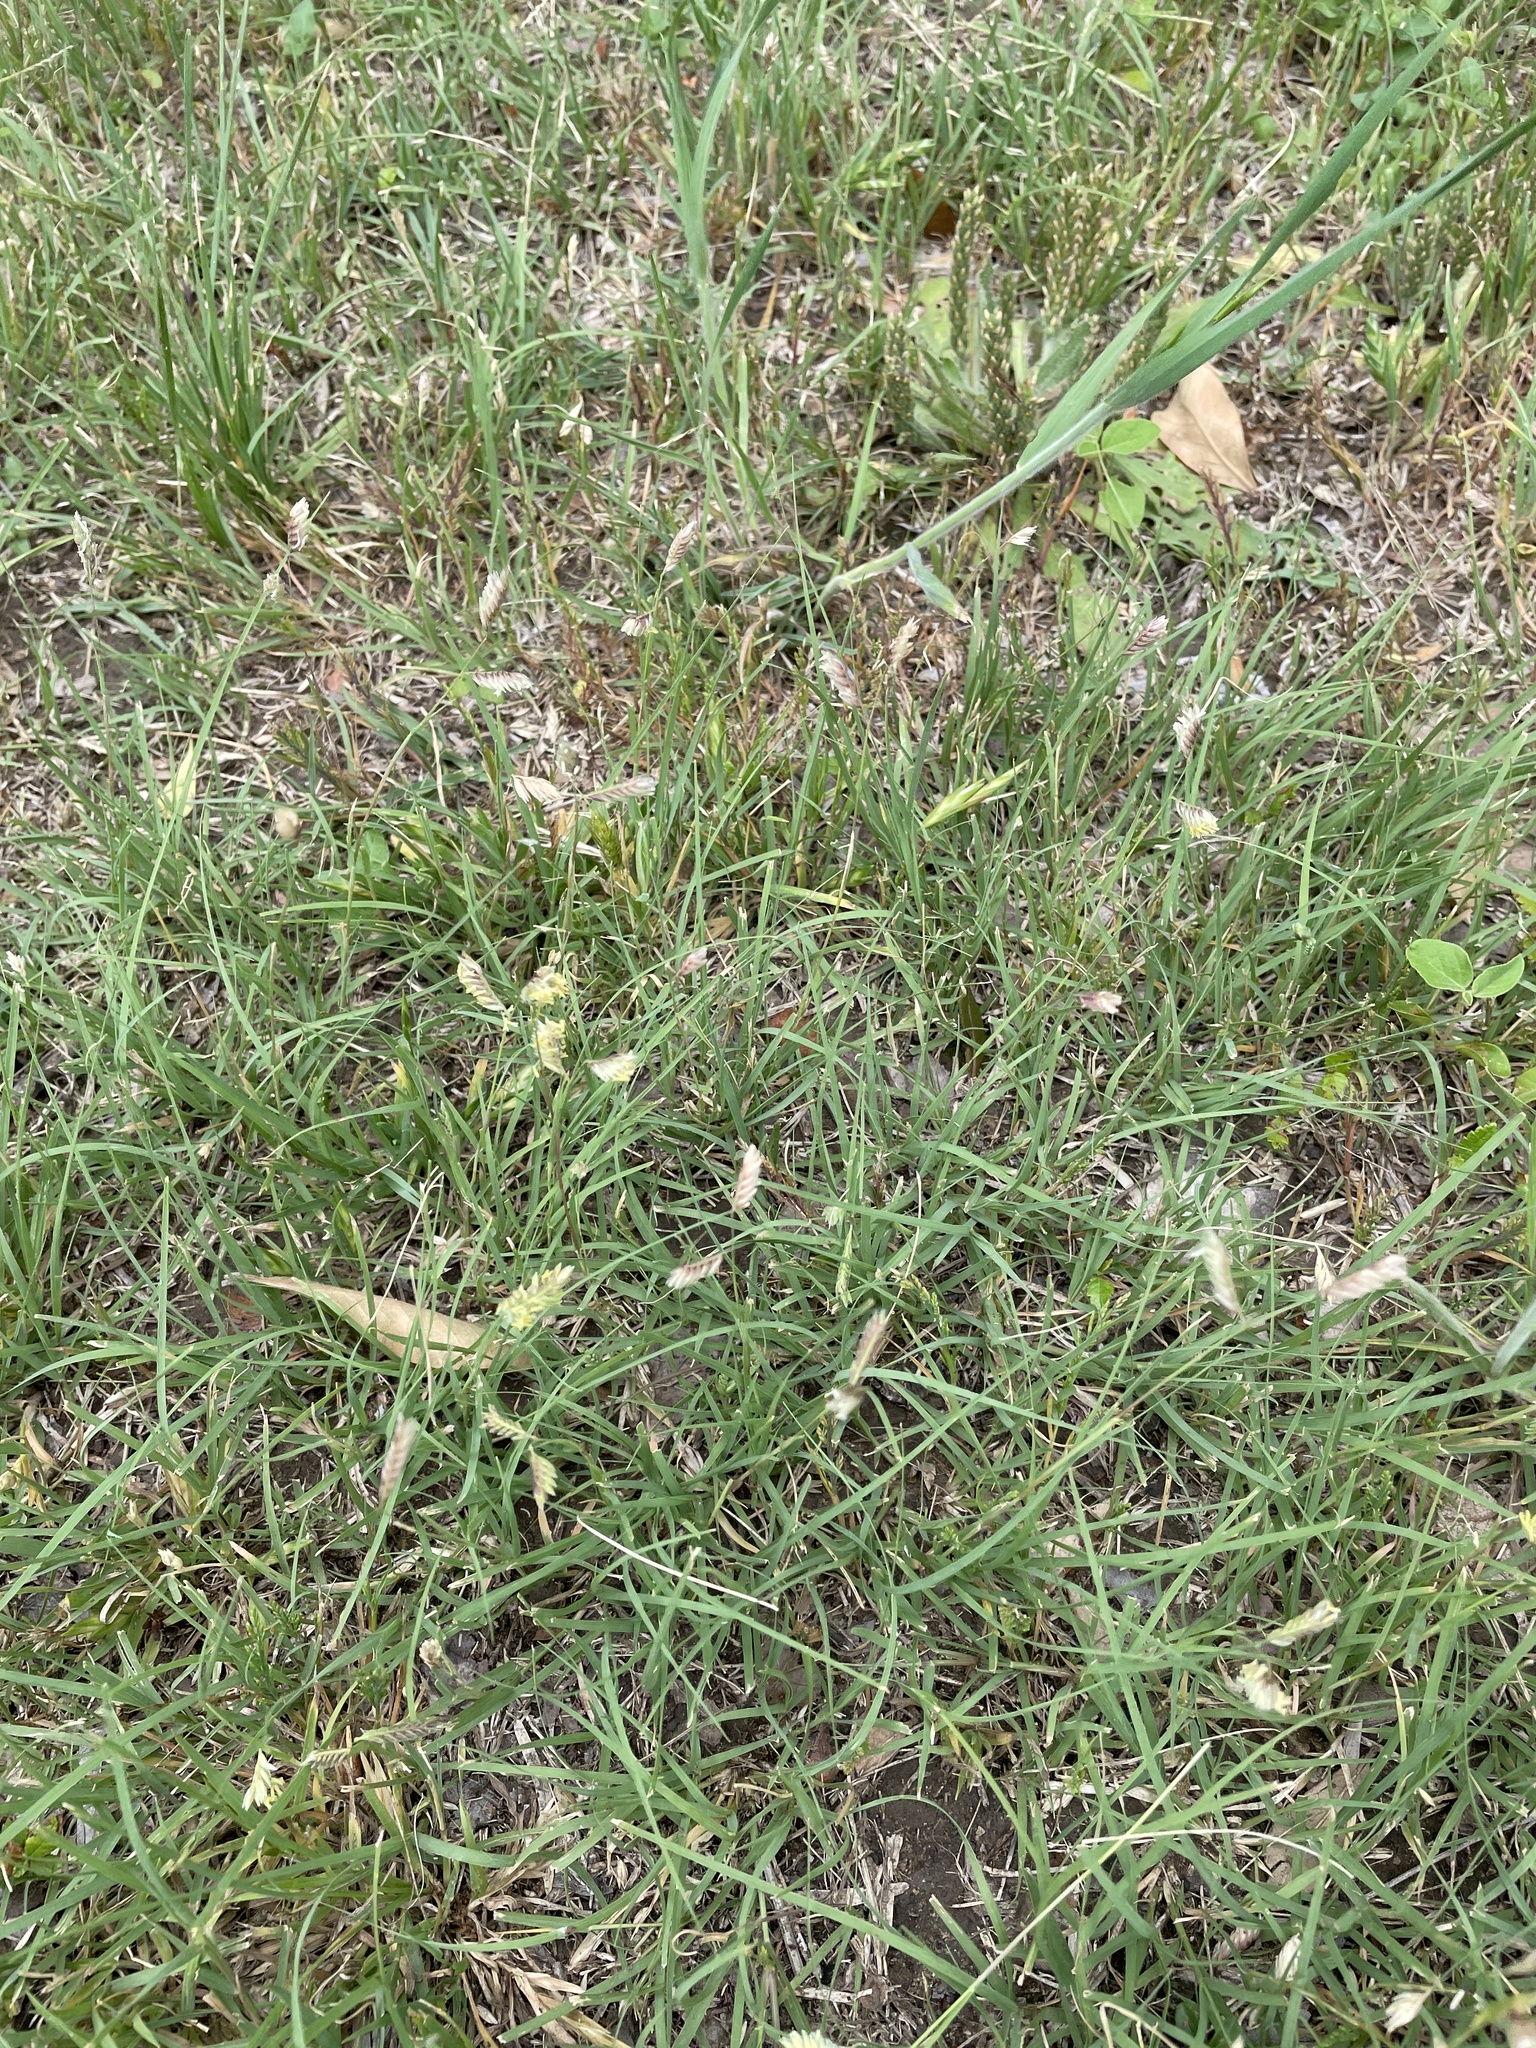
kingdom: Plantae
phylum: Tracheophyta
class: Liliopsida
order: Poales
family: Poaceae
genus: Bouteloua
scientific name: Bouteloua dactyloides
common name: Buffalo grass
